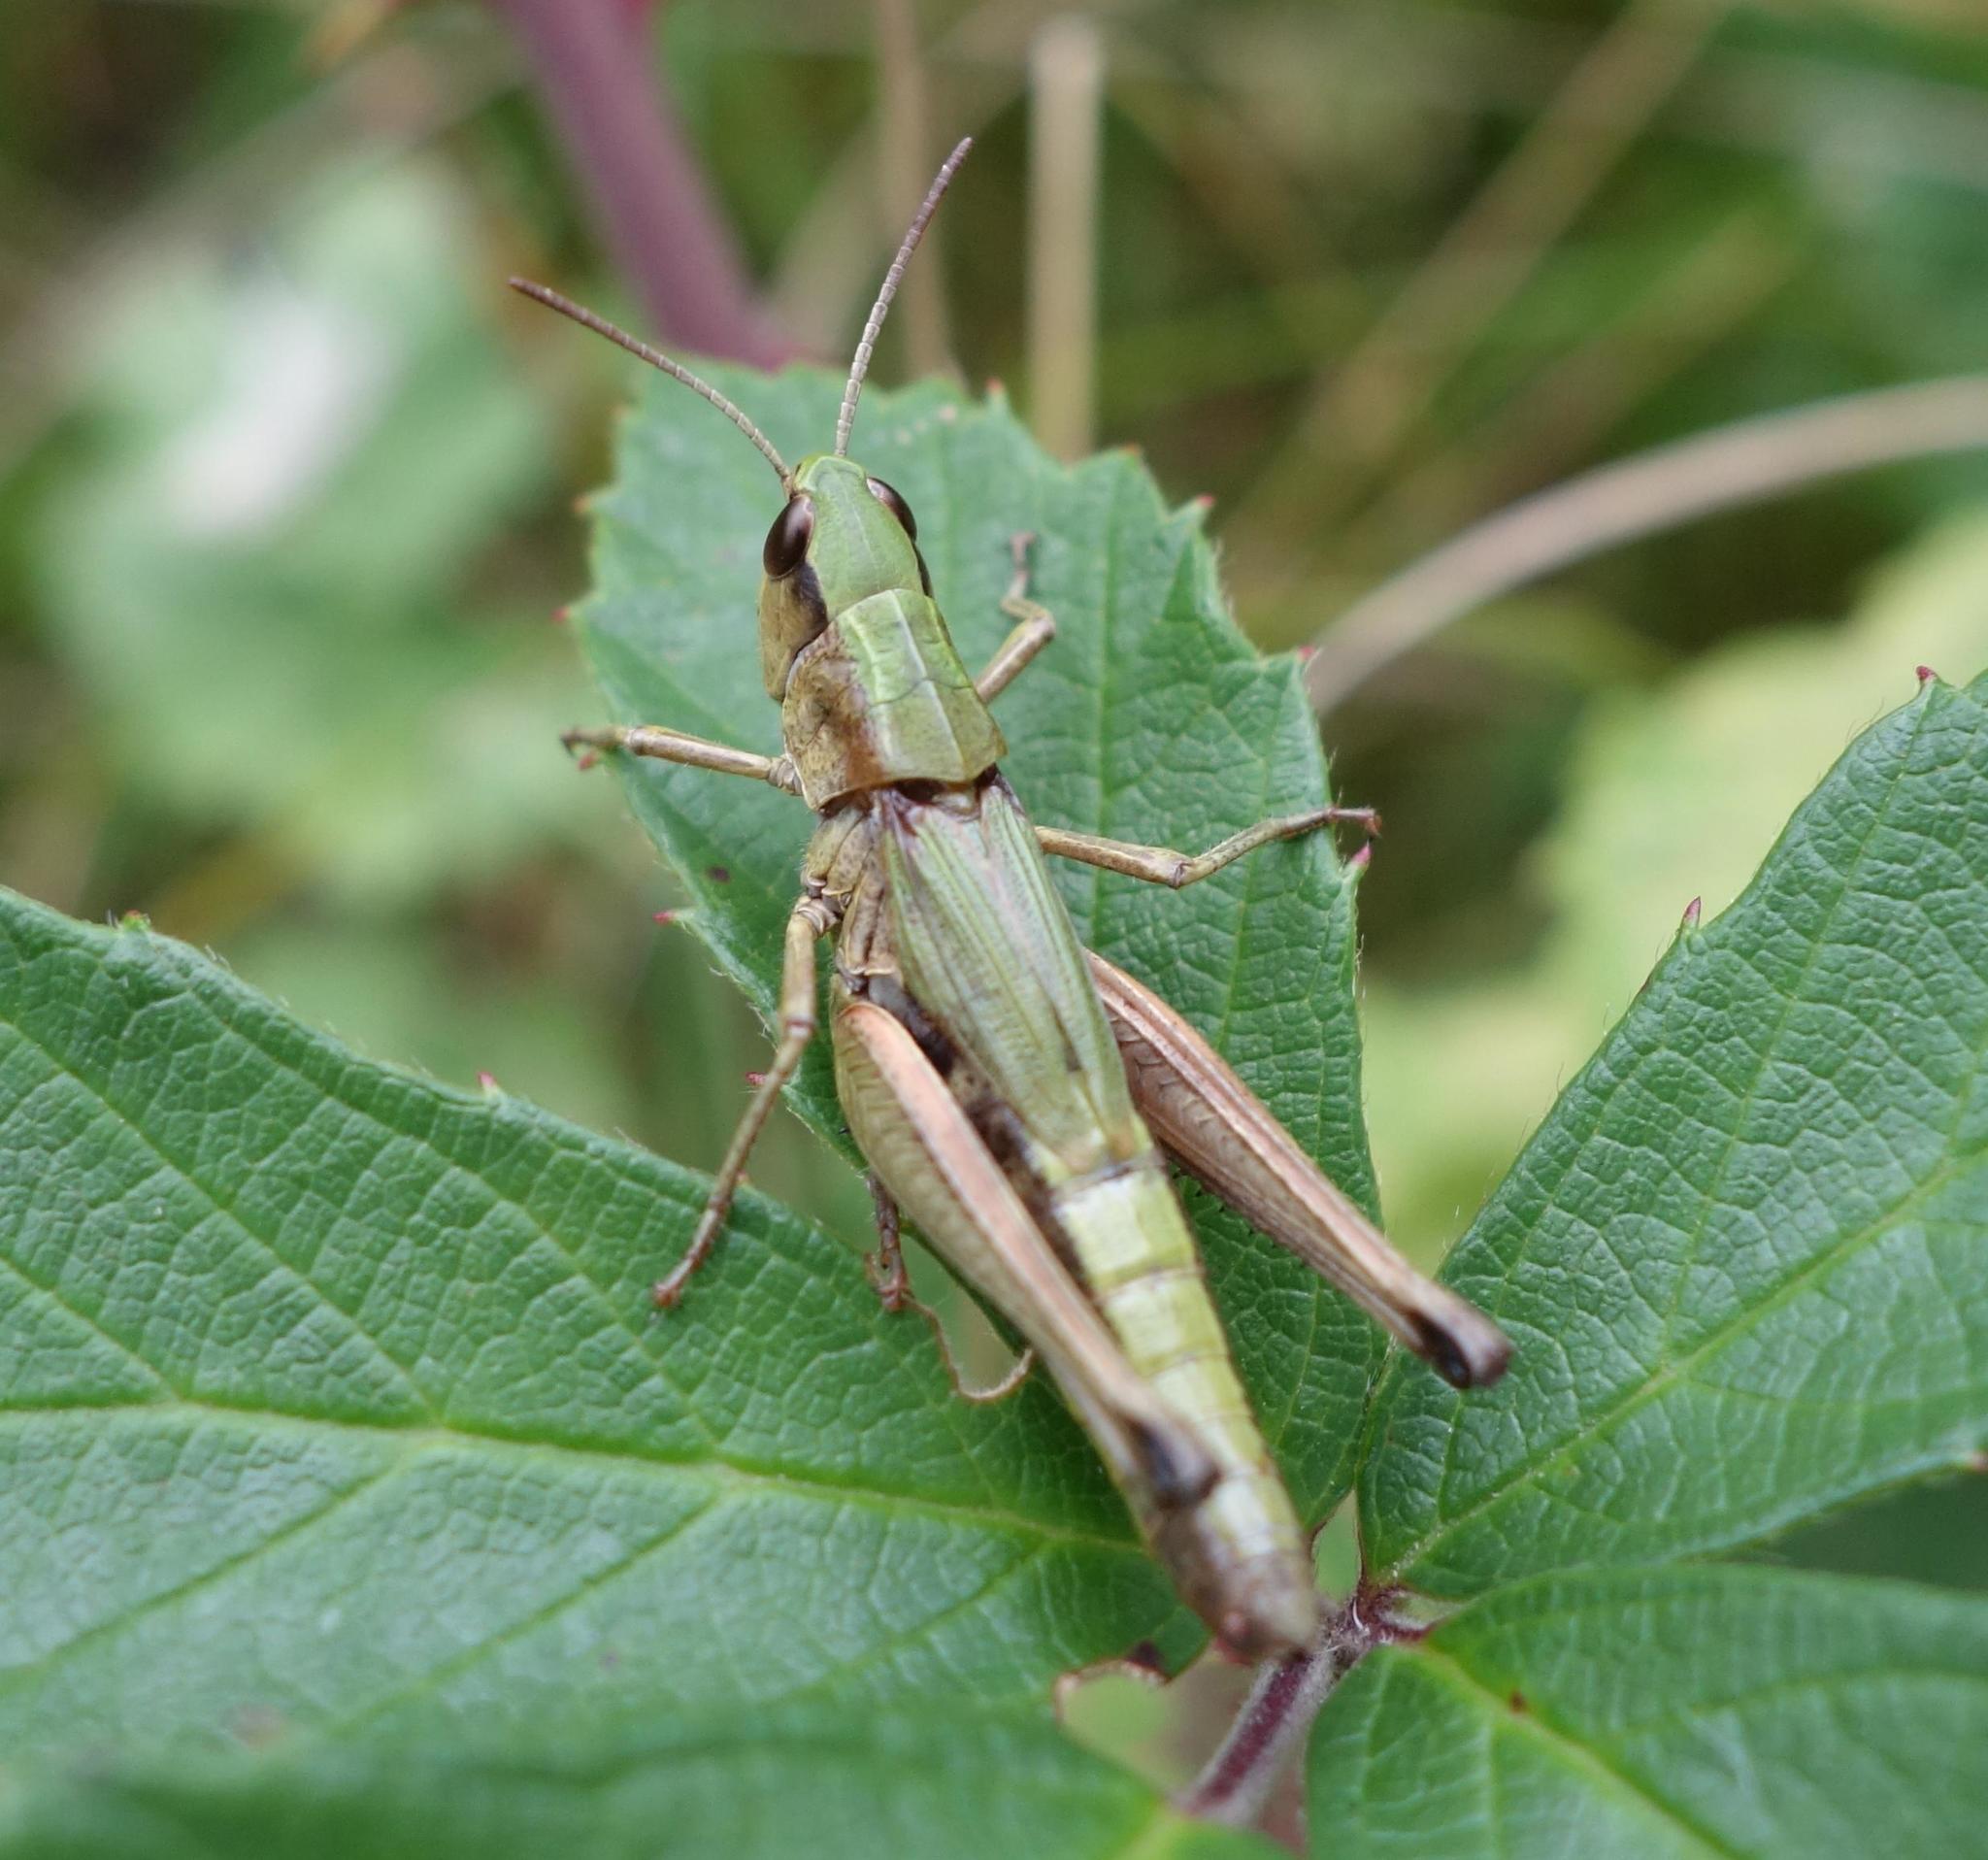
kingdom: Animalia
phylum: Arthropoda
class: Insecta
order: Orthoptera
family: Acrididae
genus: Pseudochorthippus
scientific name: Pseudochorthippus parallelus
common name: Meadow grasshopper
